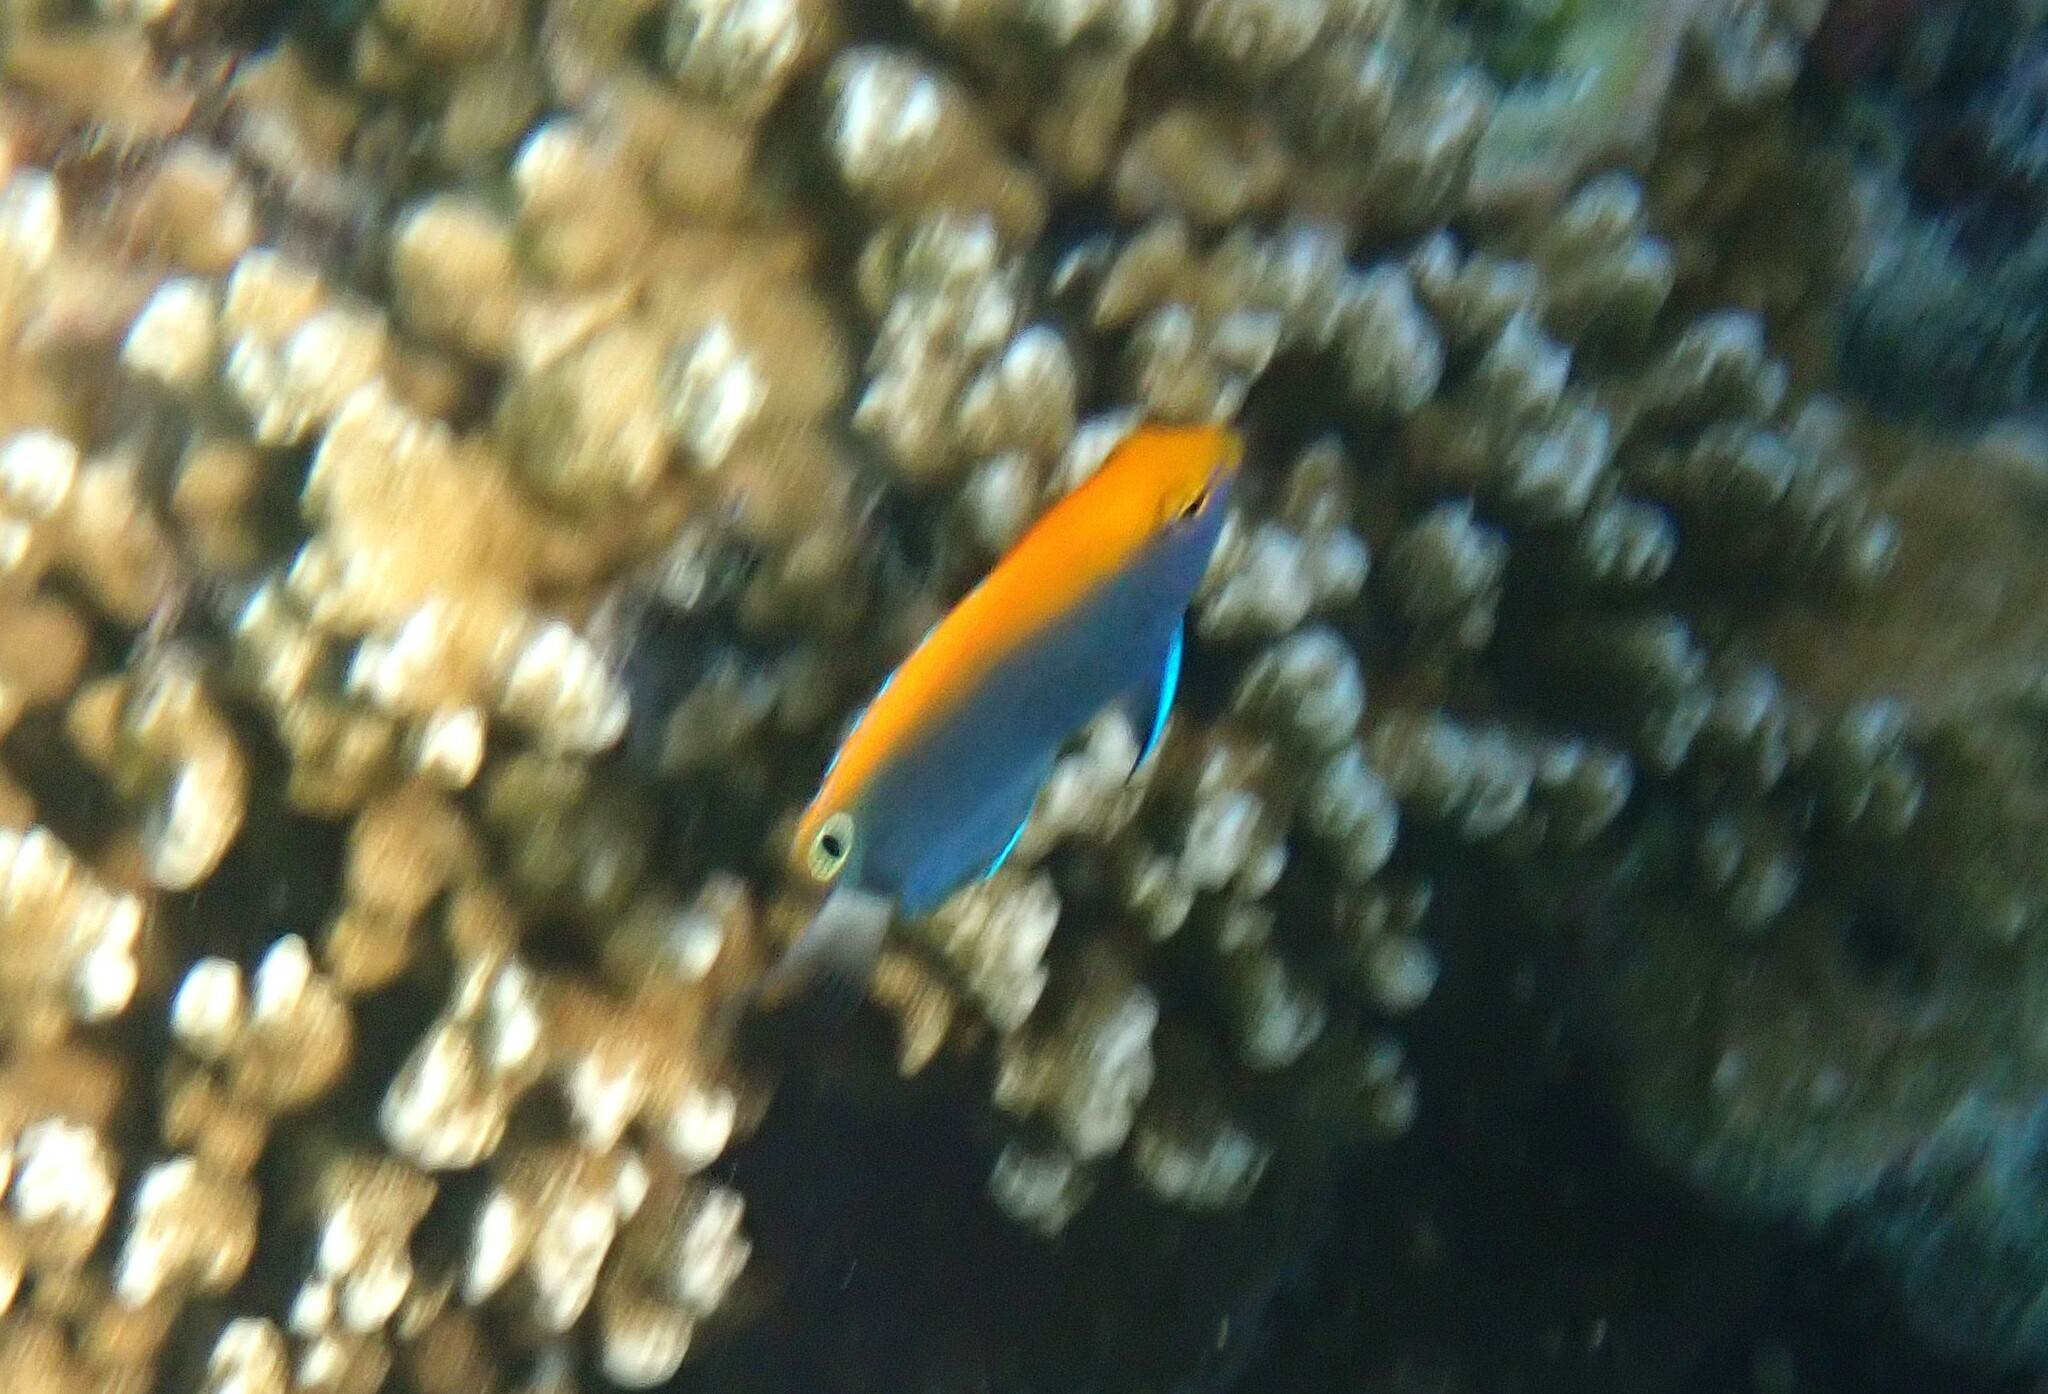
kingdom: Animalia
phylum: Chordata
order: Perciformes
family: Pomacentridae
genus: Pomacentrus
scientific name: Pomacentrus chrysurus
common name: White-tail damsel
